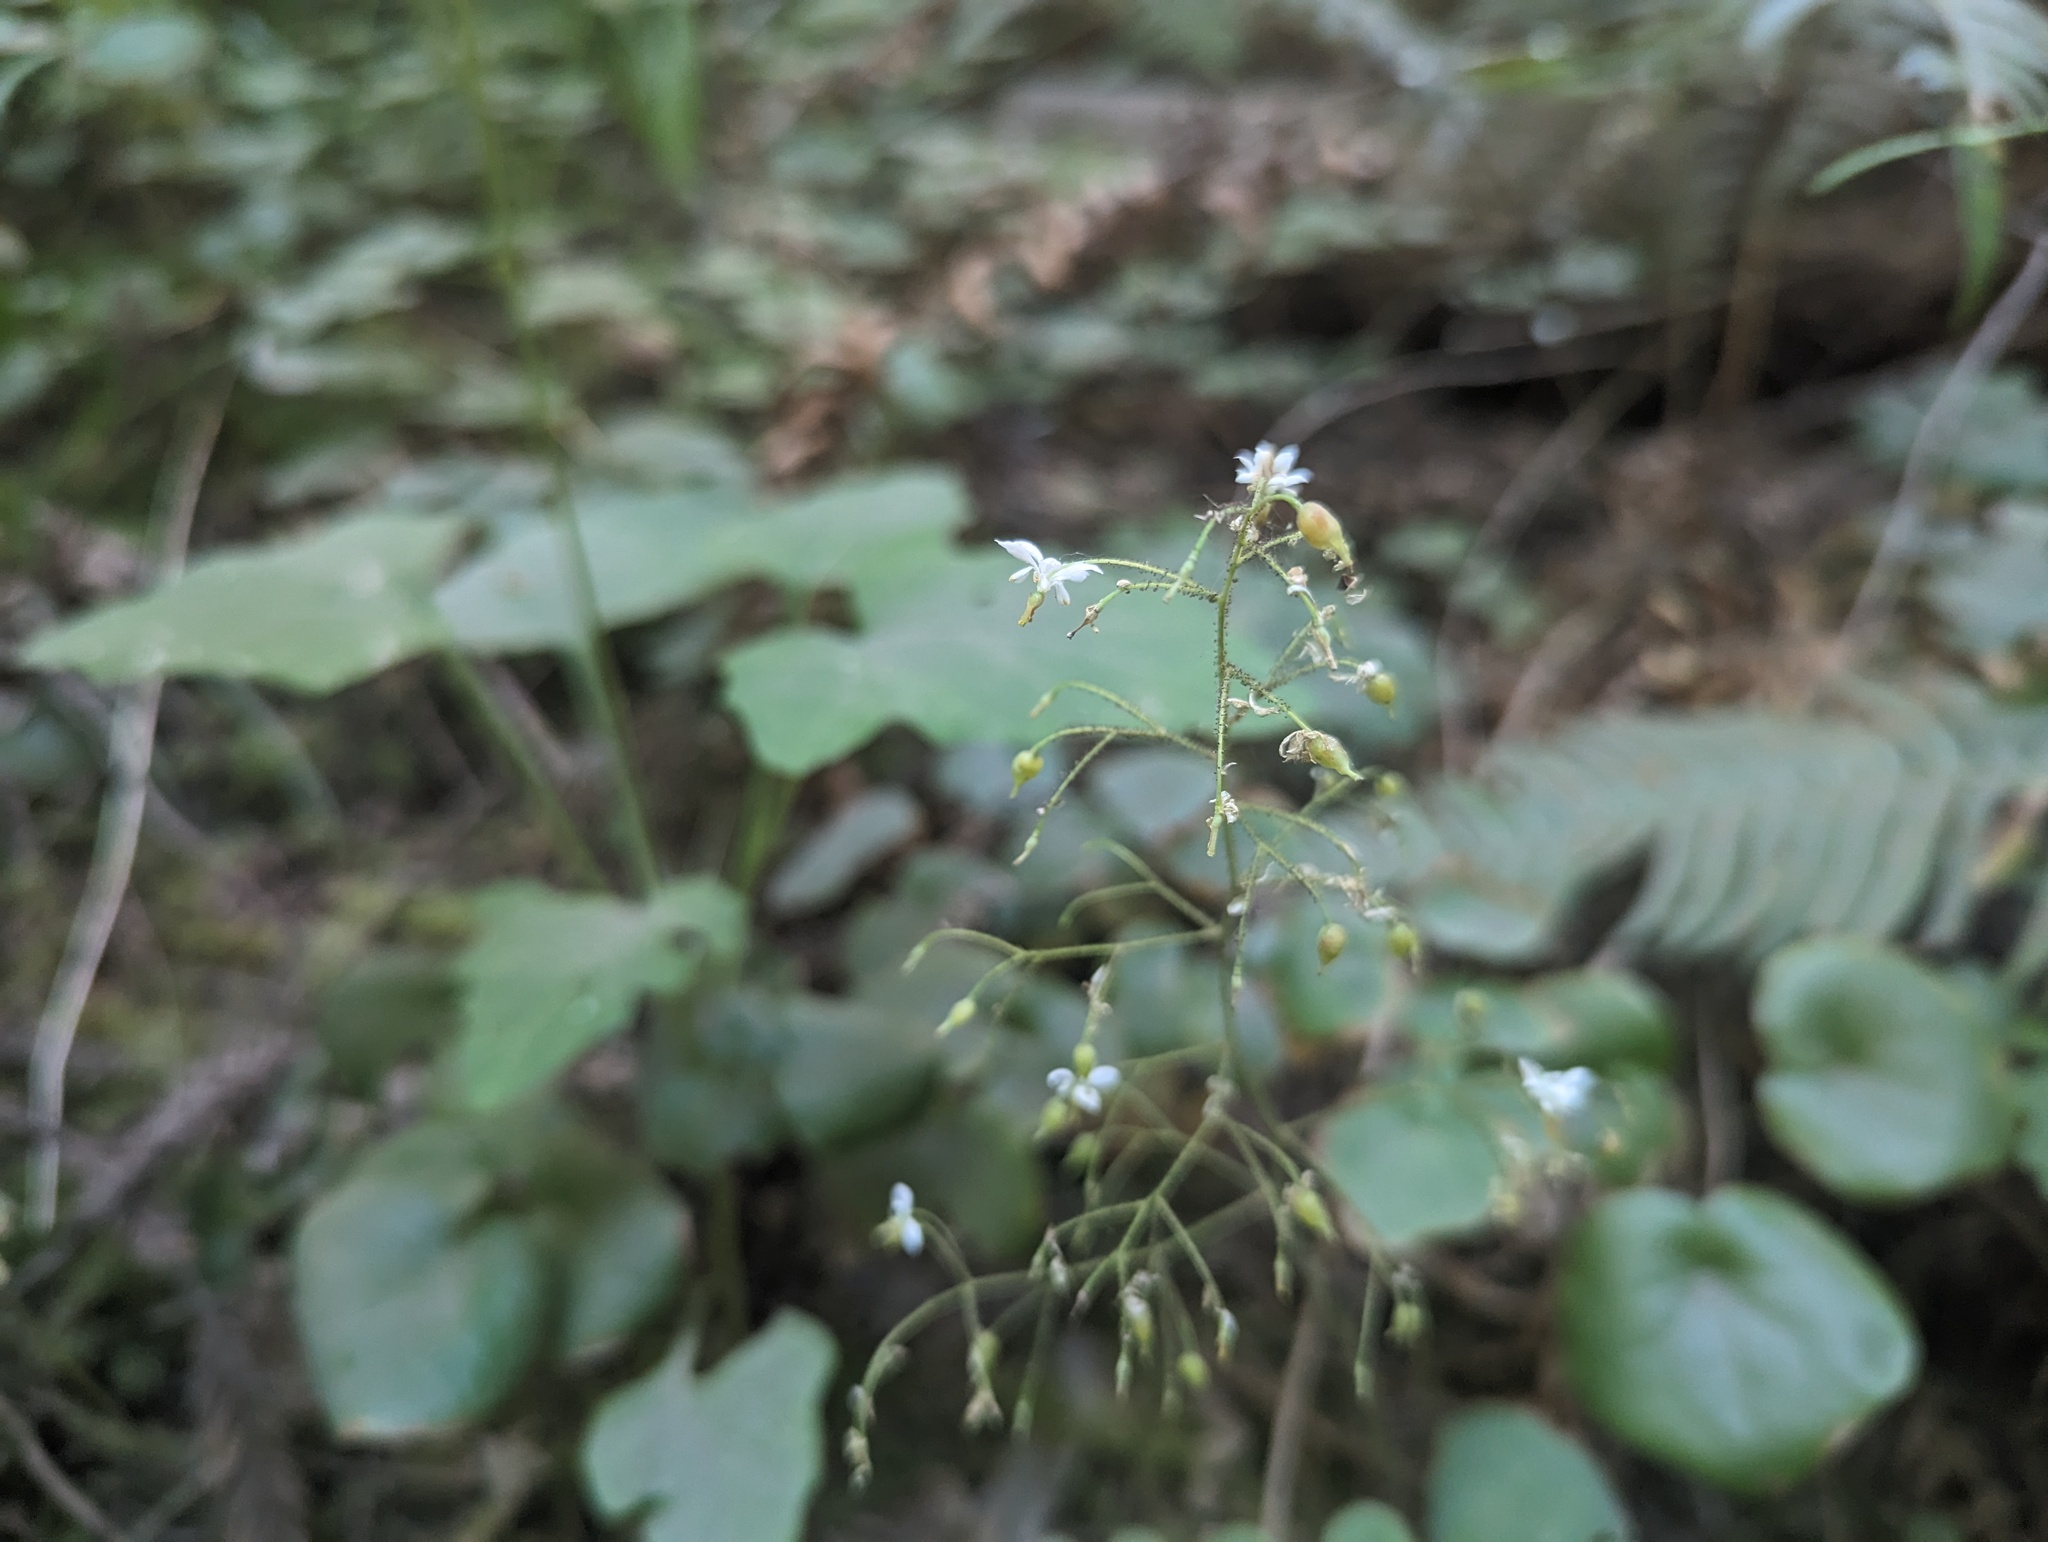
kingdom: Plantae
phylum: Tracheophyta
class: Magnoliopsida
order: Ranunculales
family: Berberidaceae
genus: Vancouveria
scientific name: Vancouveria planipetala
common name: Redwood-ivy
